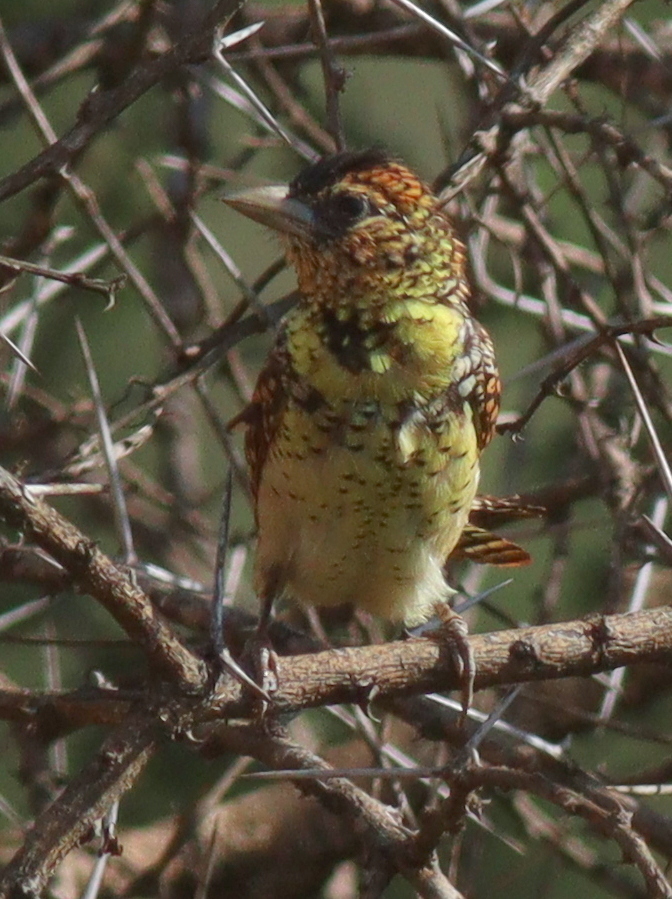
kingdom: Animalia
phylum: Chordata
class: Aves
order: Piciformes
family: Lybiidae
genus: Trachyphonus
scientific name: Trachyphonus darnaudii
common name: D'arnaud's barbet
